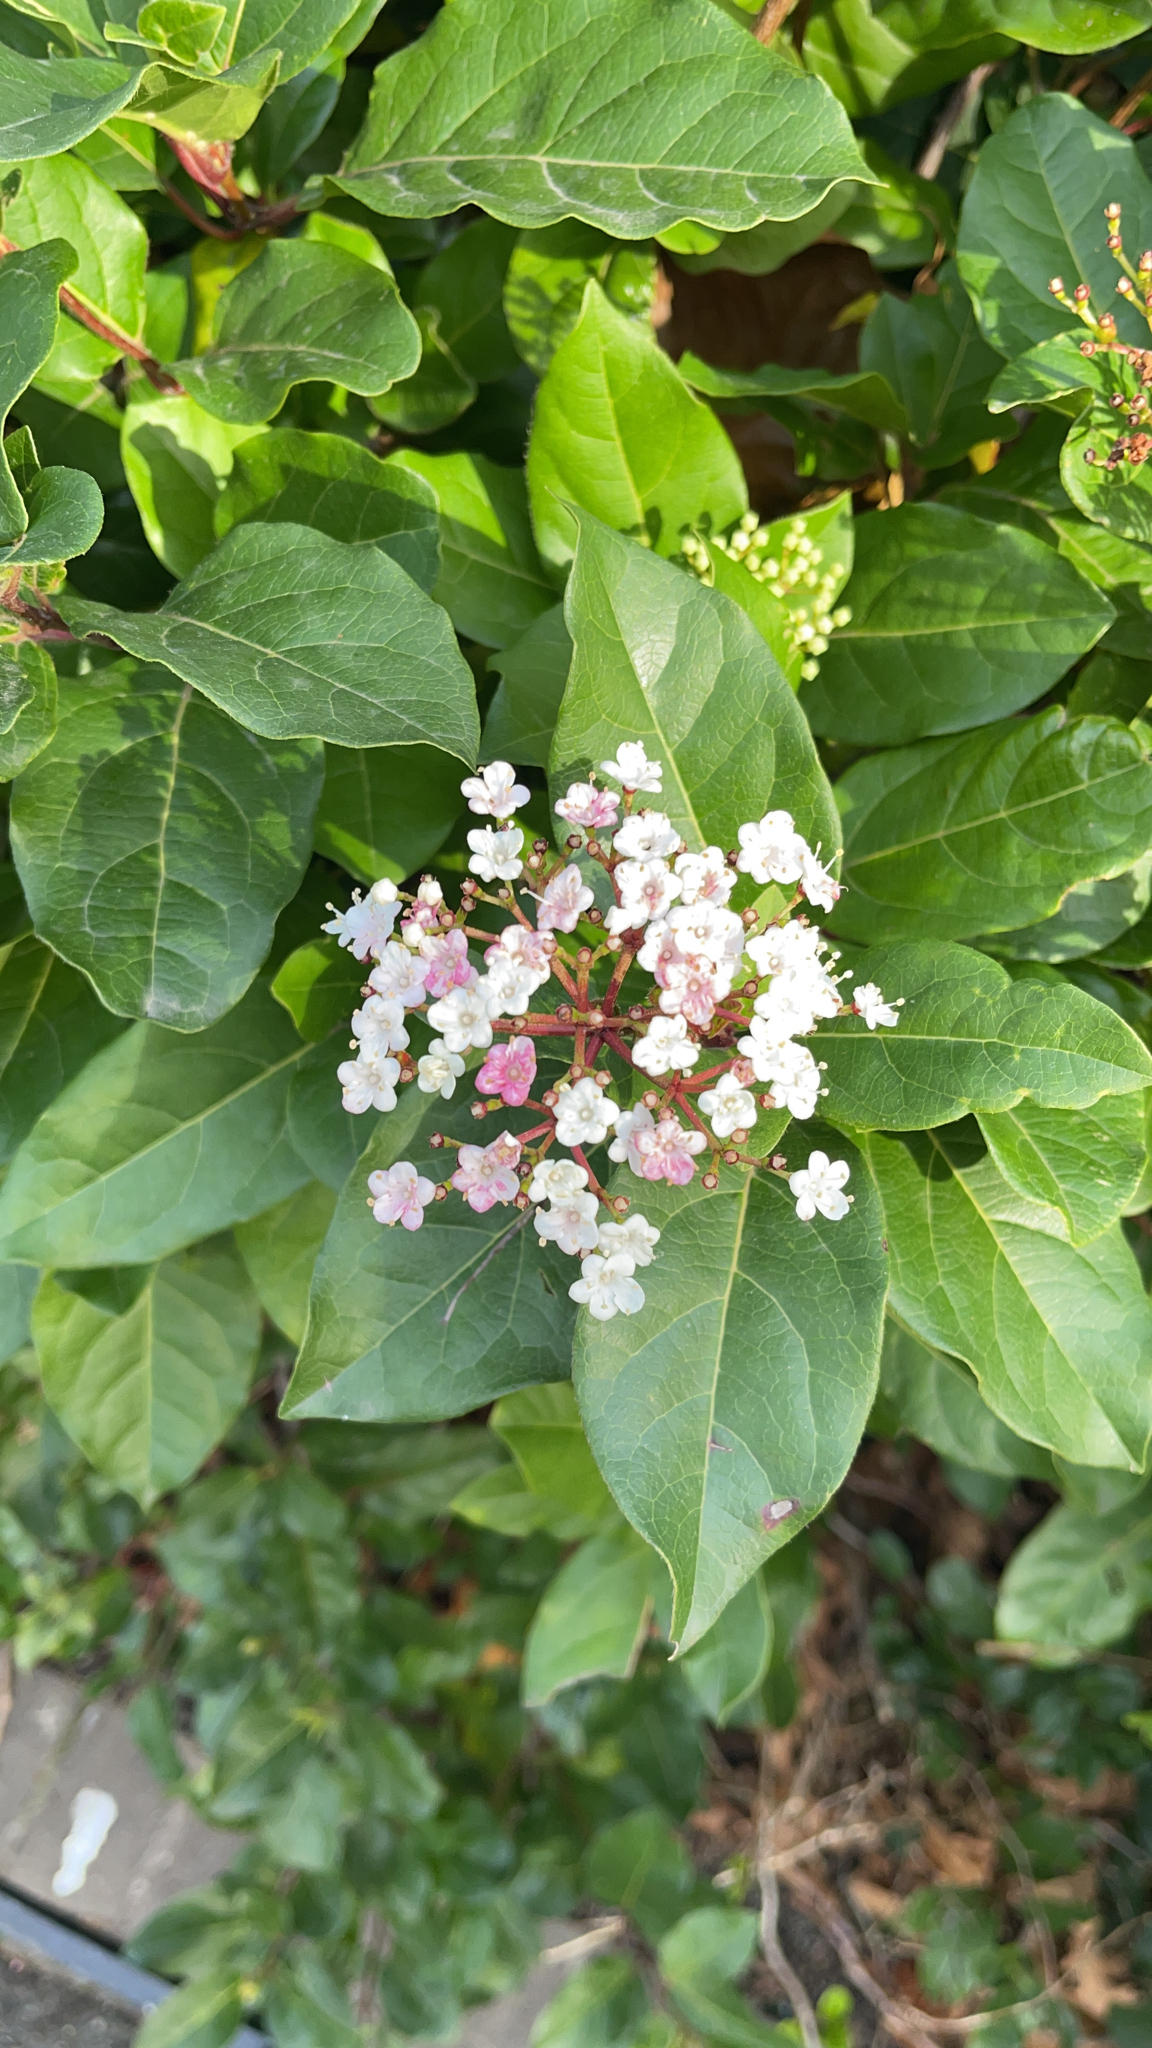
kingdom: Plantae
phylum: Tracheophyta
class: Magnoliopsida
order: Dipsacales
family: Viburnaceae
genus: Viburnum
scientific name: Viburnum tinus
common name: Laurustinus
